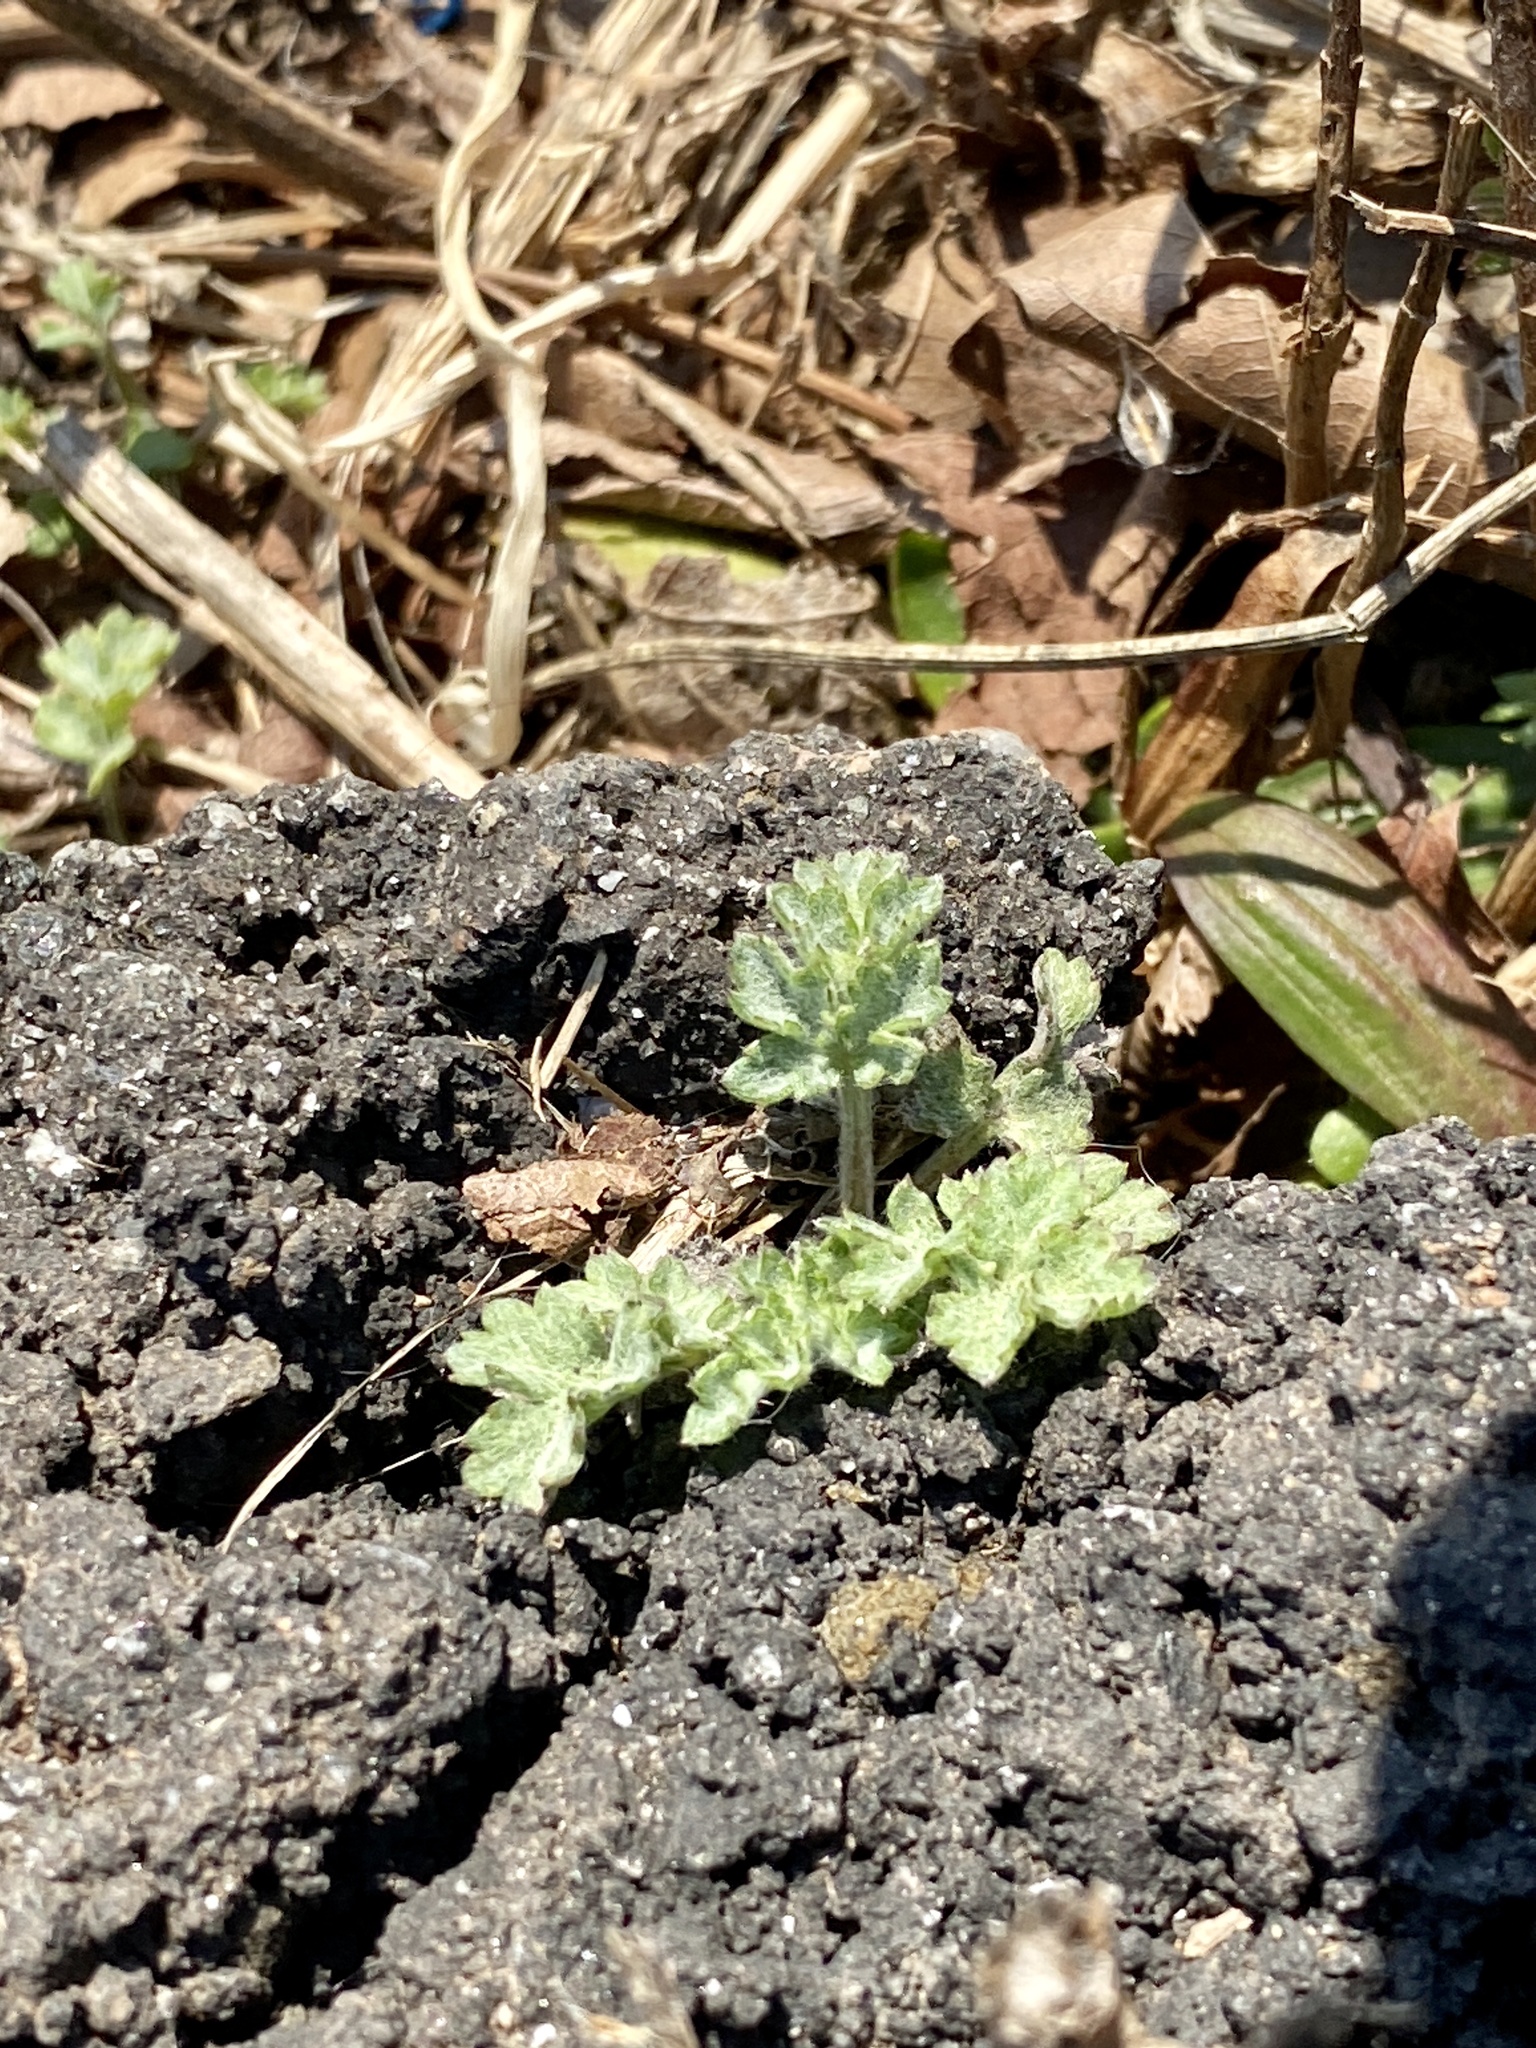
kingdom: Plantae
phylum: Tracheophyta
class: Magnoliopsida
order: Asterales
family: Asteraceae
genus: Artemisia
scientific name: Artemisia vulgaris
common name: Mugwort
